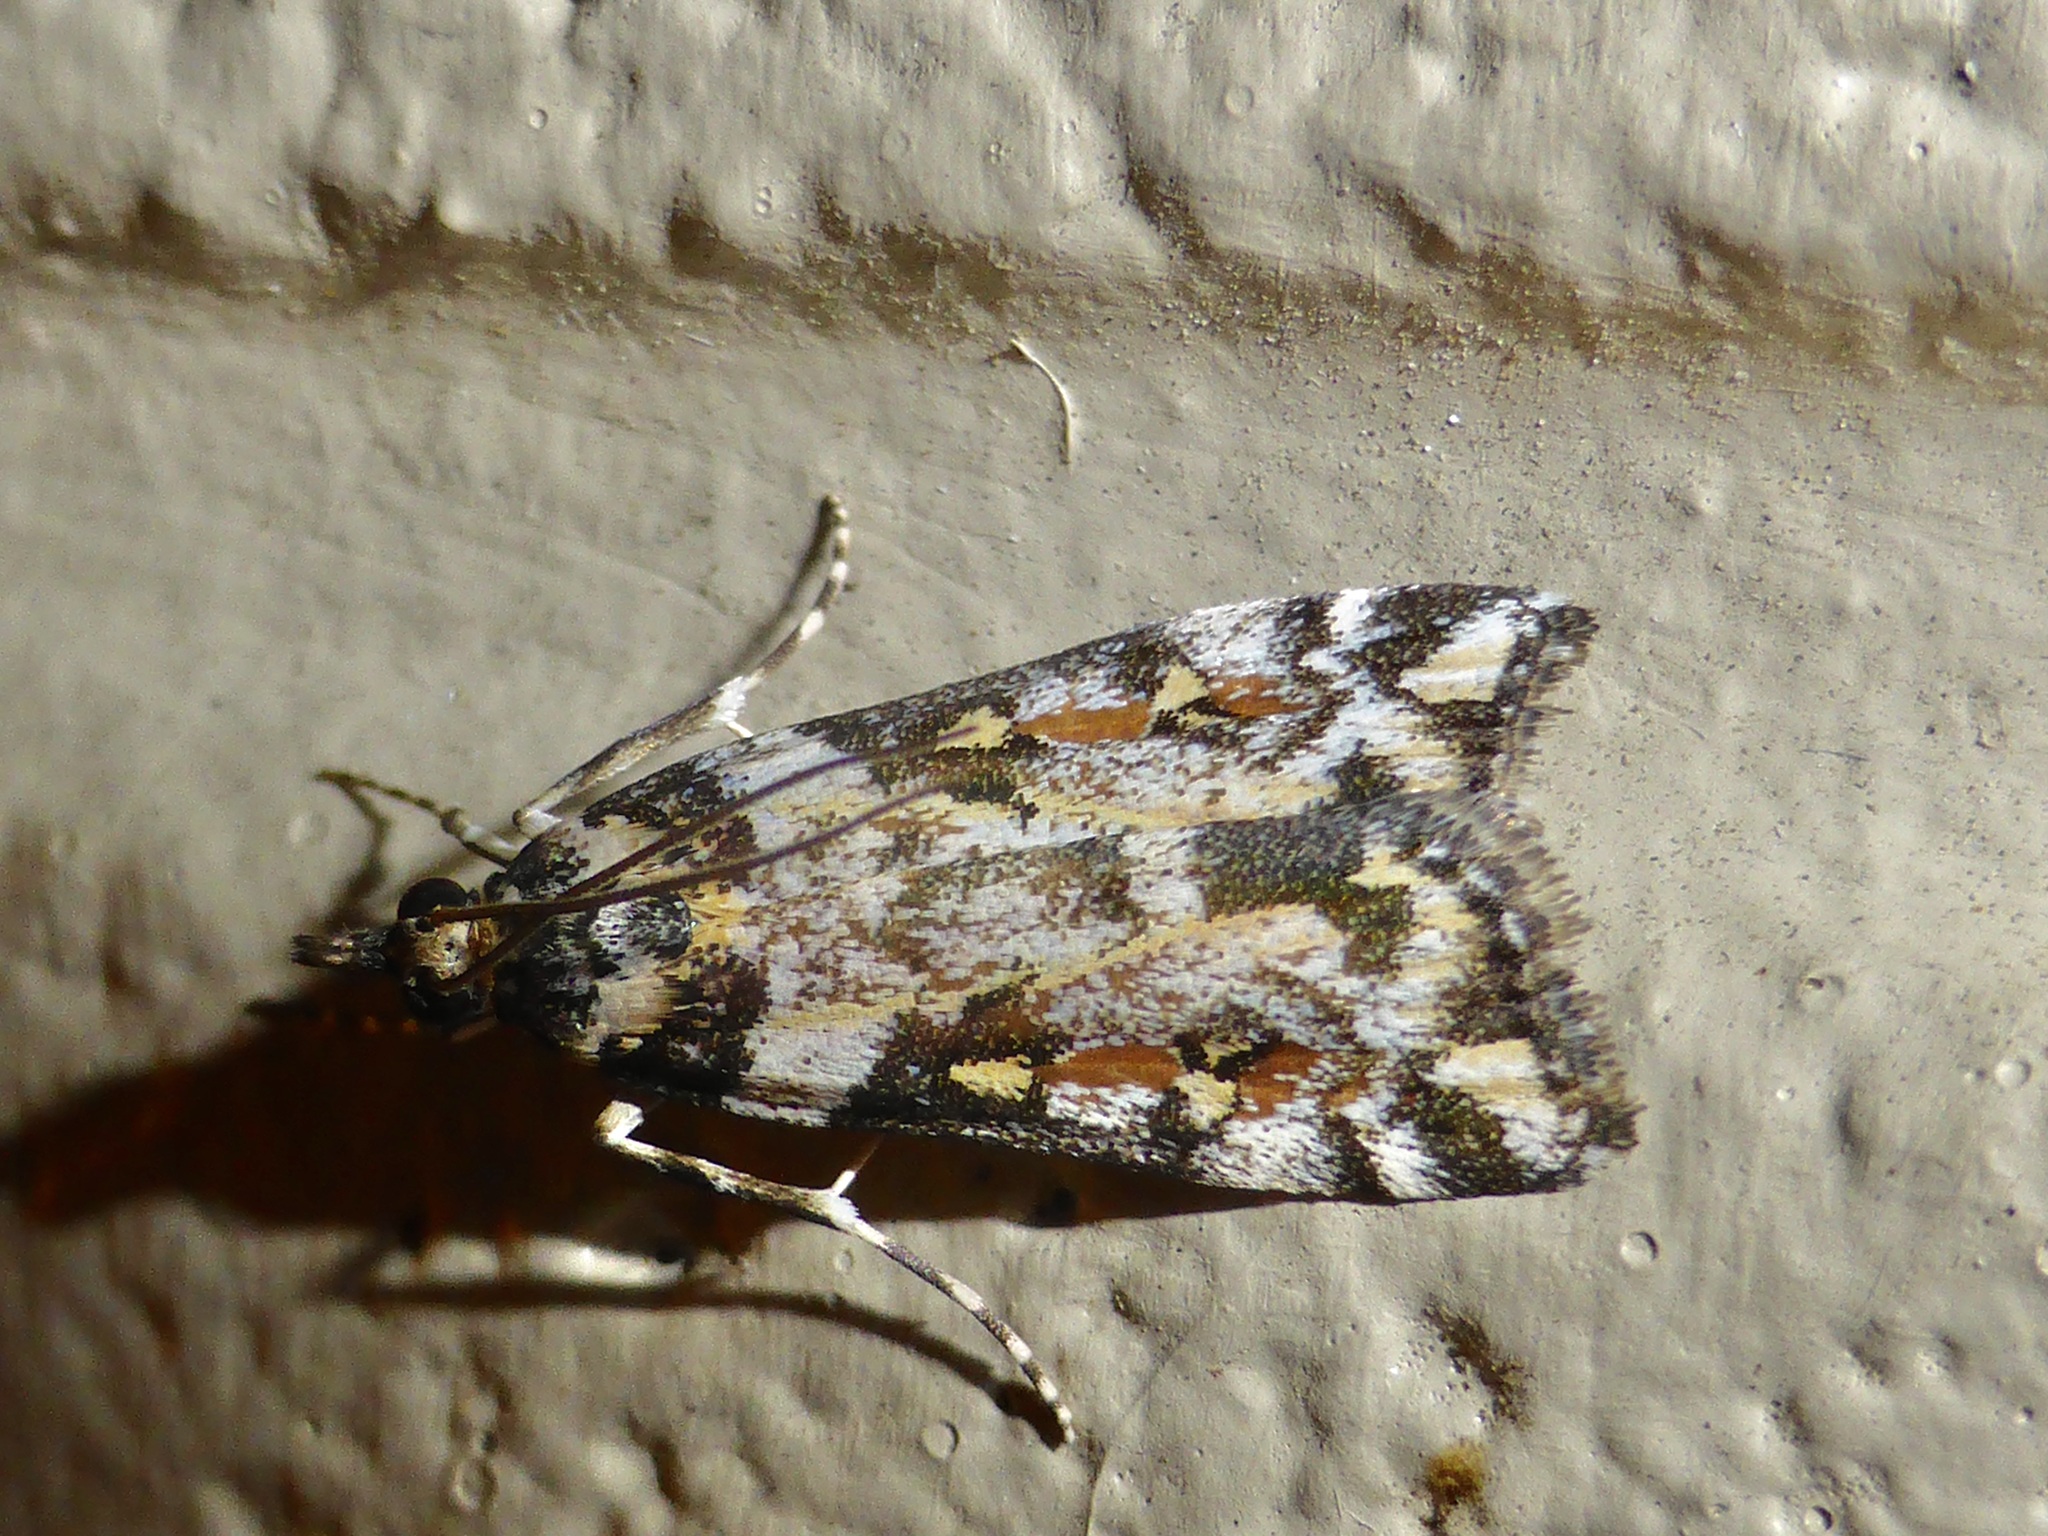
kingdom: Animalia
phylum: Arthropoda
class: Insecta
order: Lepidoptera
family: Crambidae
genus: Eudonia
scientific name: Eudonia diphtheralis
